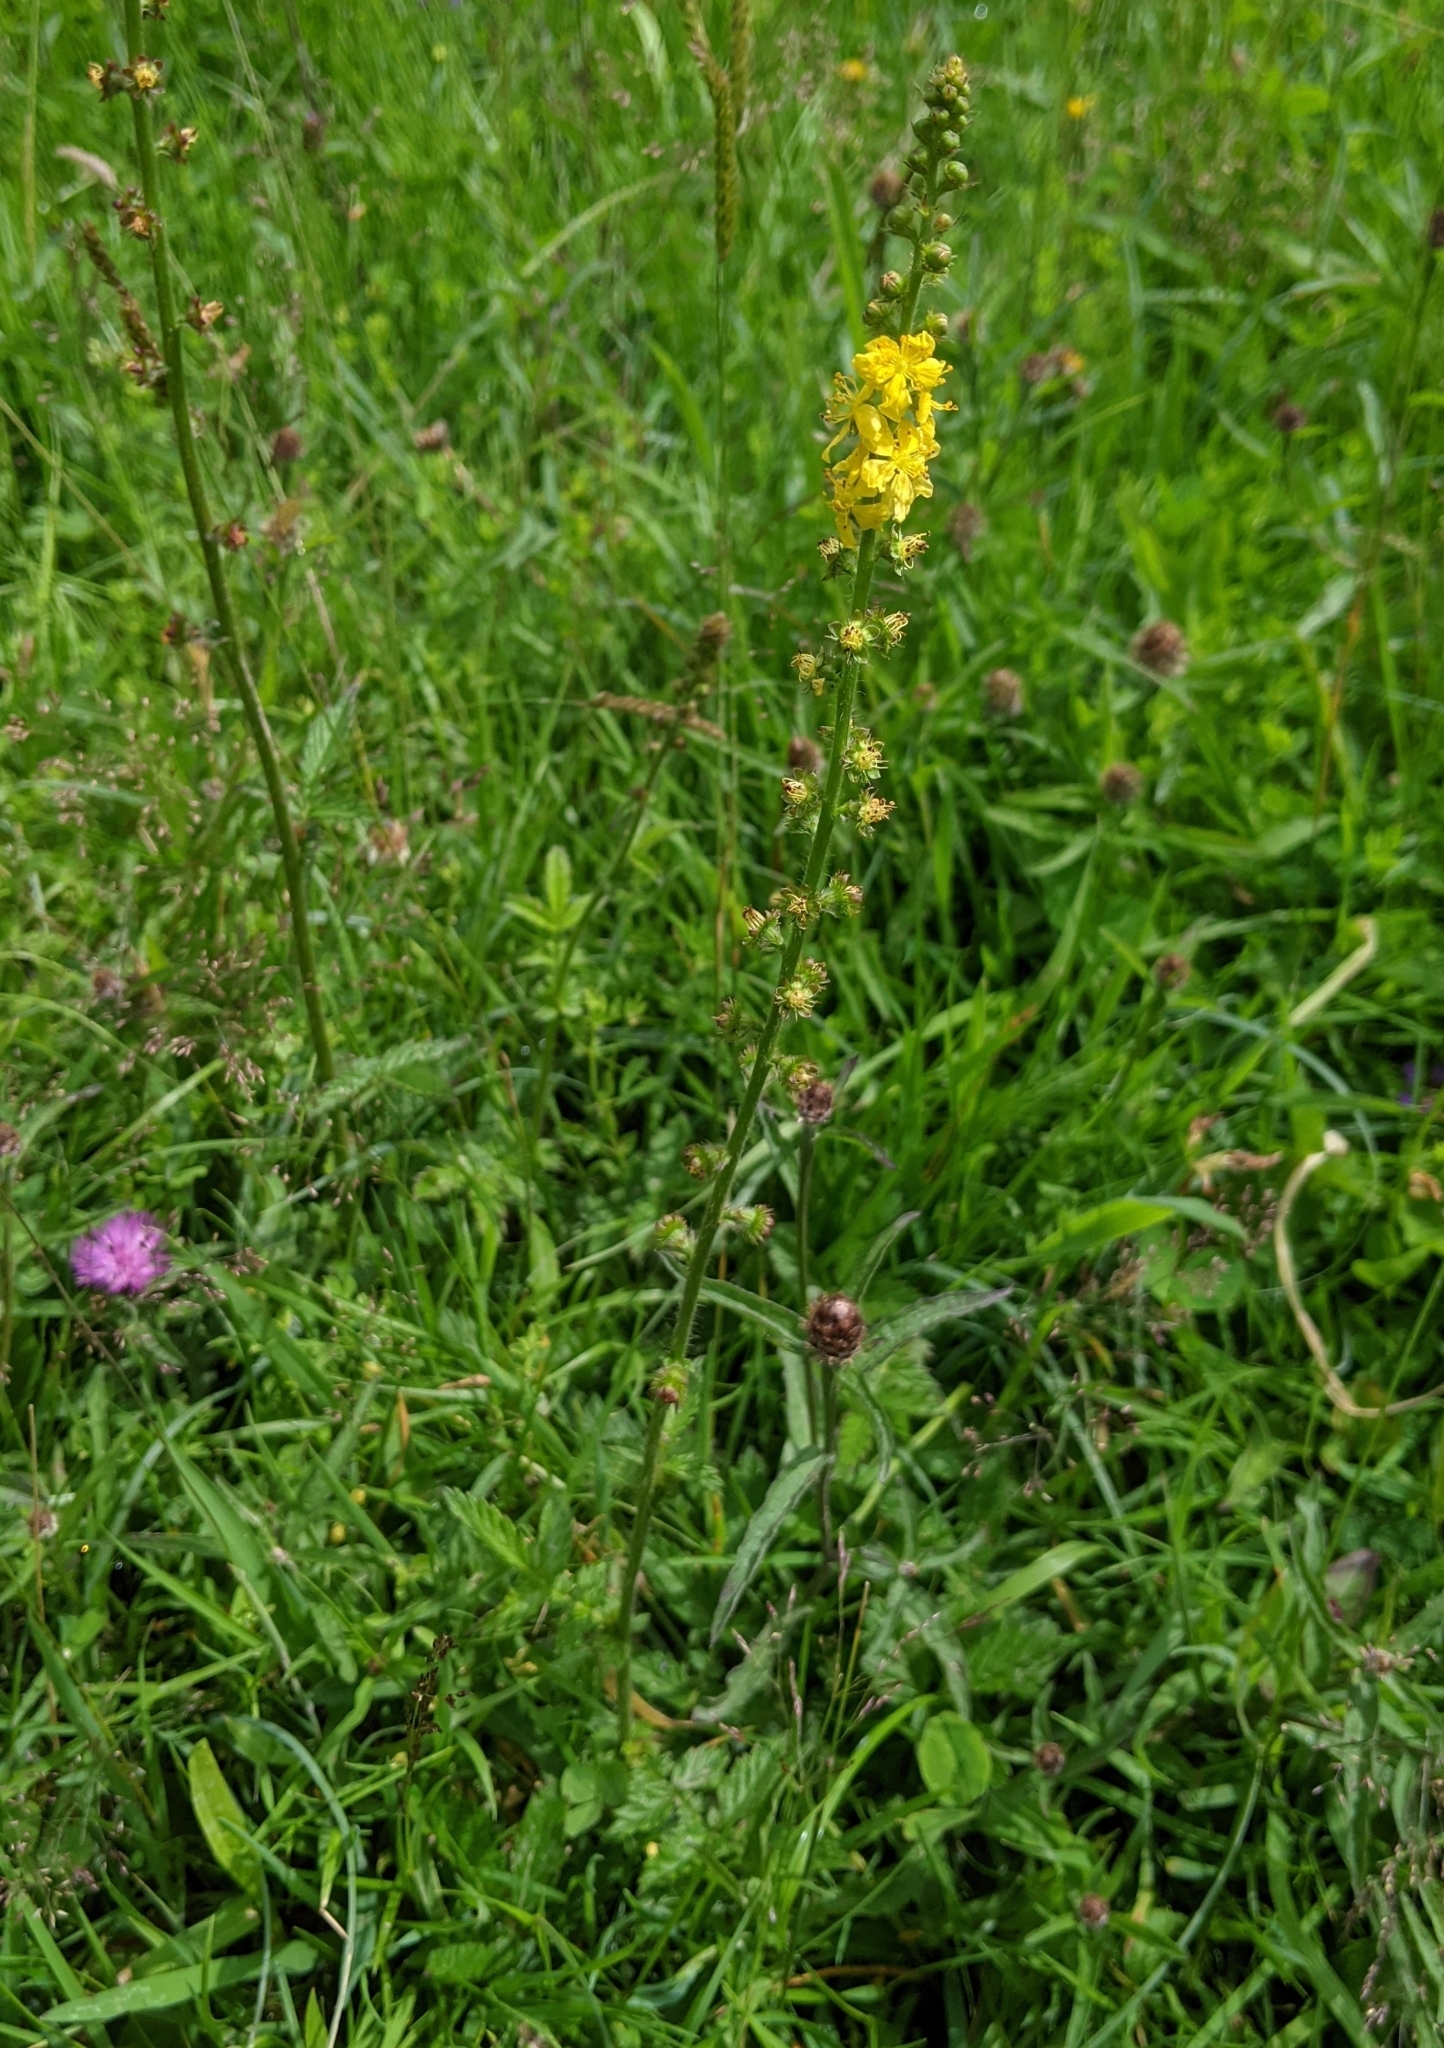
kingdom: Plantae
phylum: Tracheophyta
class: Magnoliopsida
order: Rosales
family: Rosaceae
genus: Agrimonia
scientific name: Agrimonia eupatoria
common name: Agrimony
